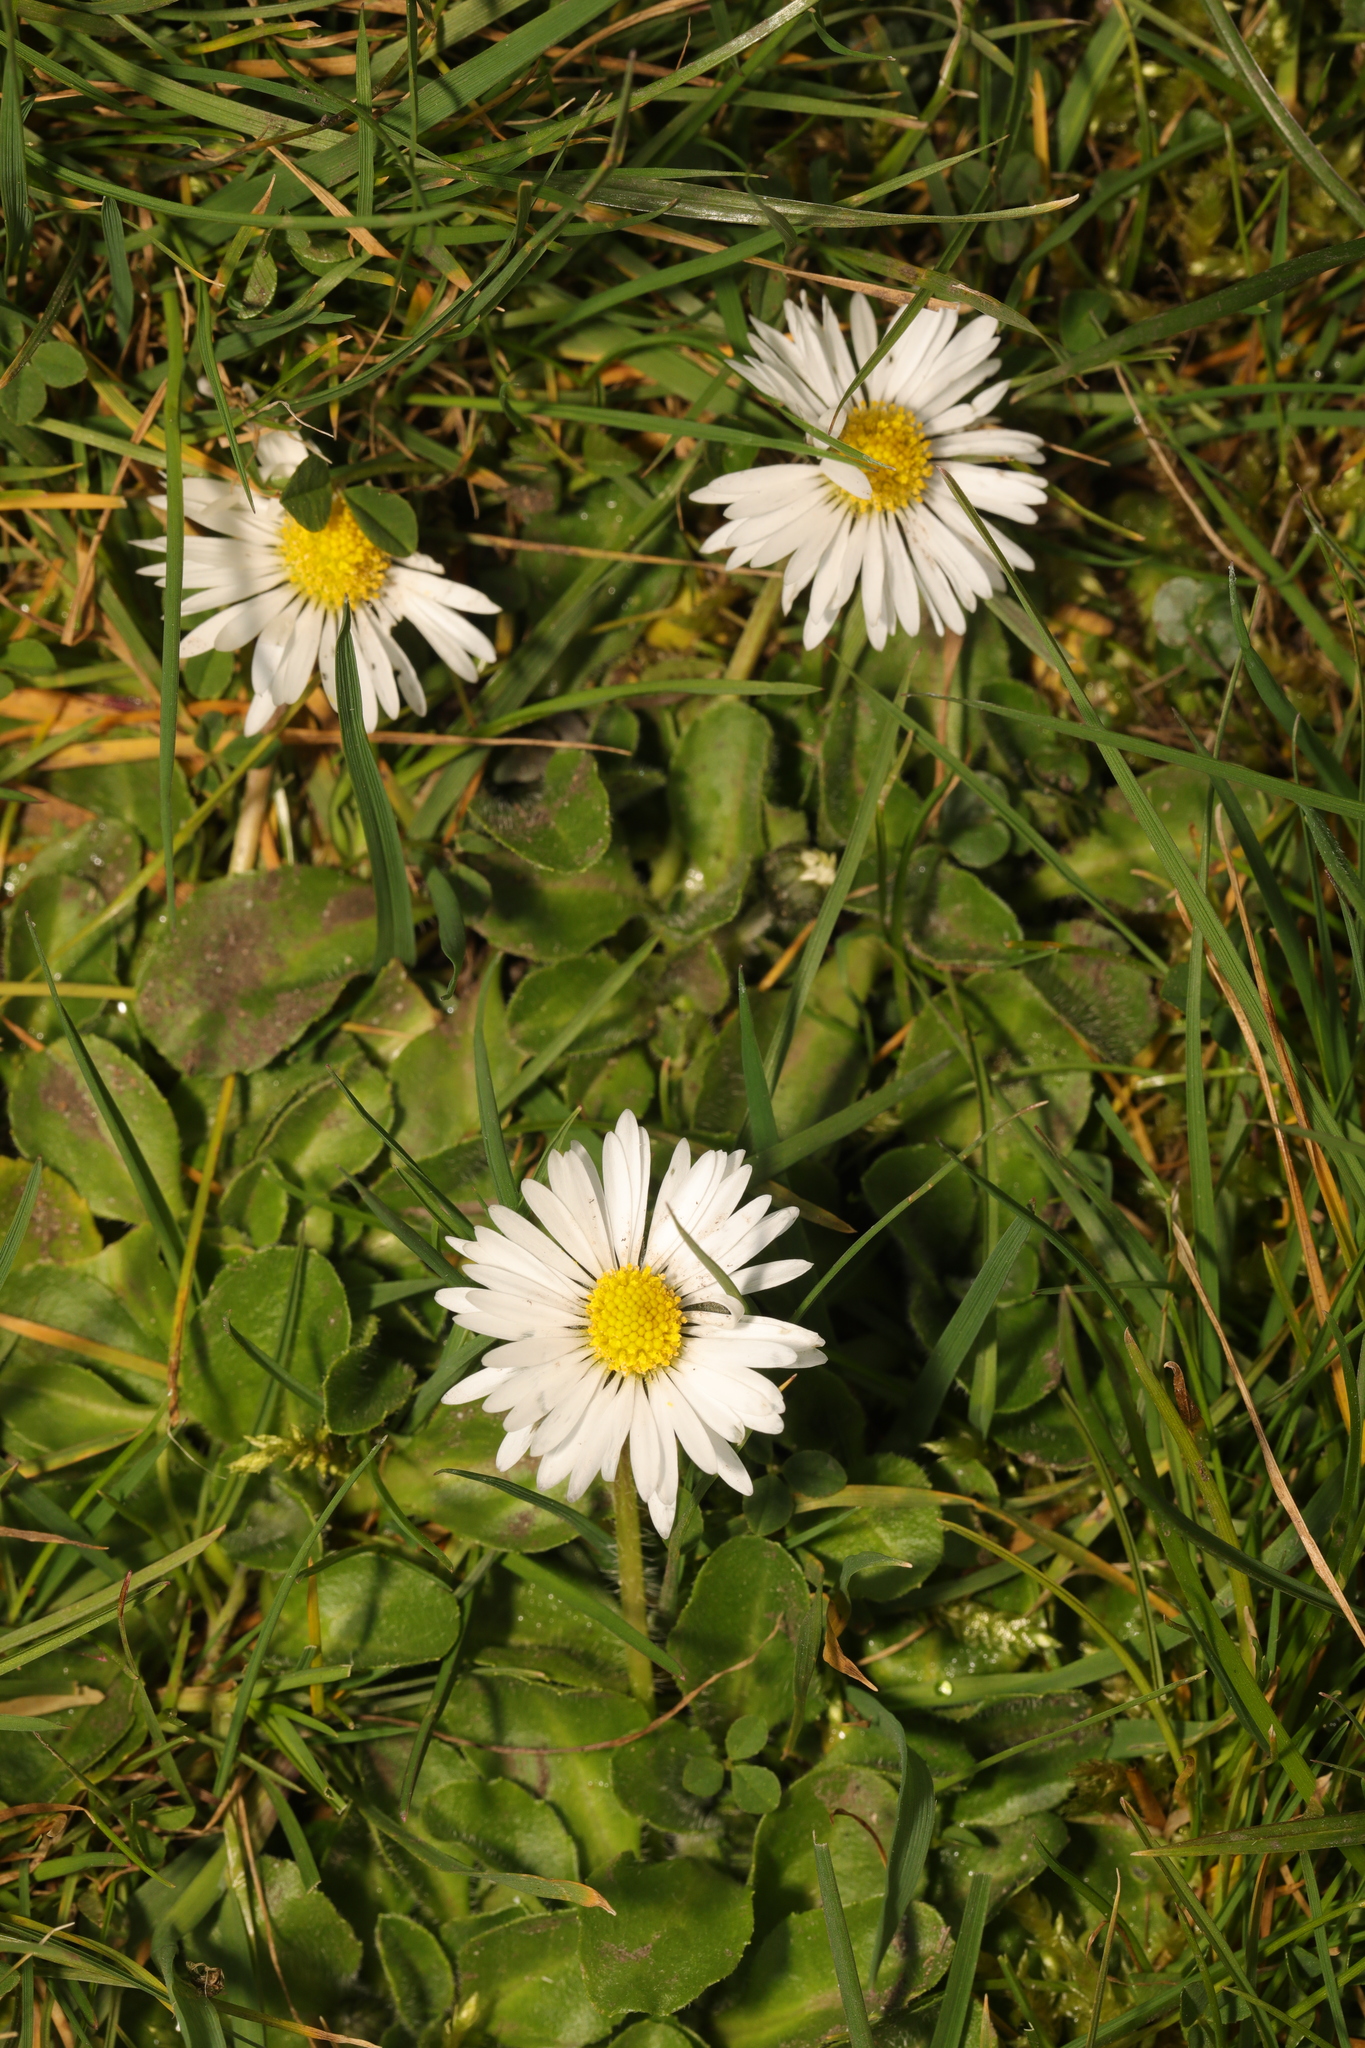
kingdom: Plantae
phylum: Tracheophyta
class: Magnoliopsida
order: Asterales
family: Asteraceae
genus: Bellis
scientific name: Bellis perennis
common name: Lawndaisy
